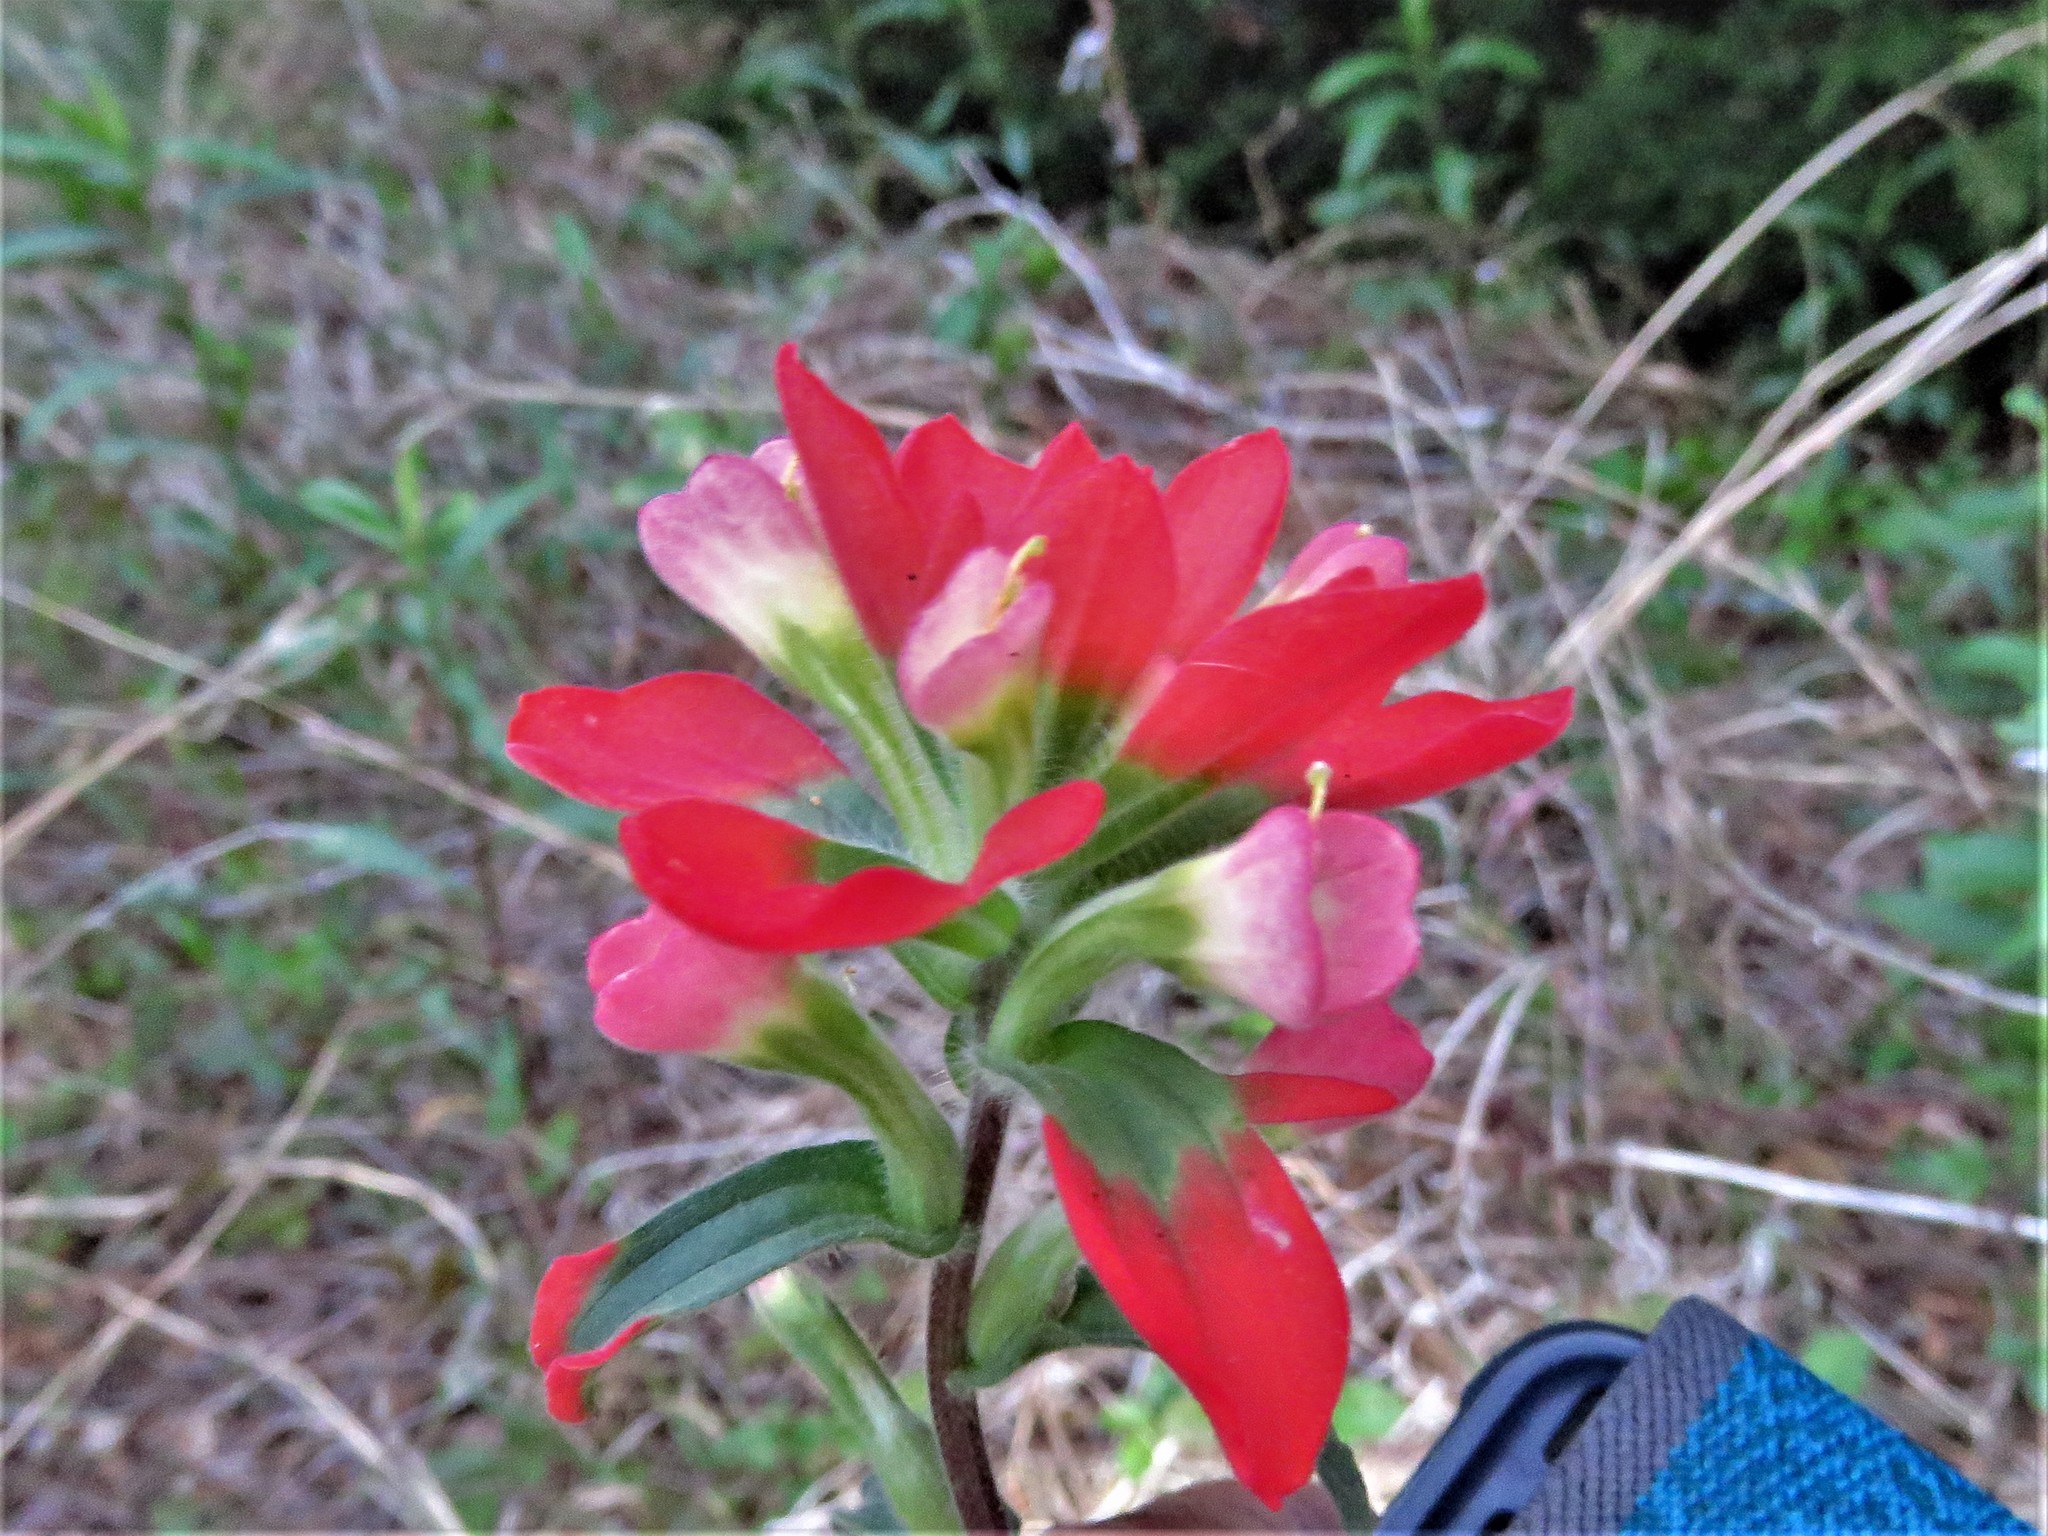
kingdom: Plantae
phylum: Tracheophyta
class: Magnoliopsida
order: Lamiales
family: Orobanchaceae
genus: Castilleja
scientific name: Castilleja indivisa
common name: Texas paintbrush
